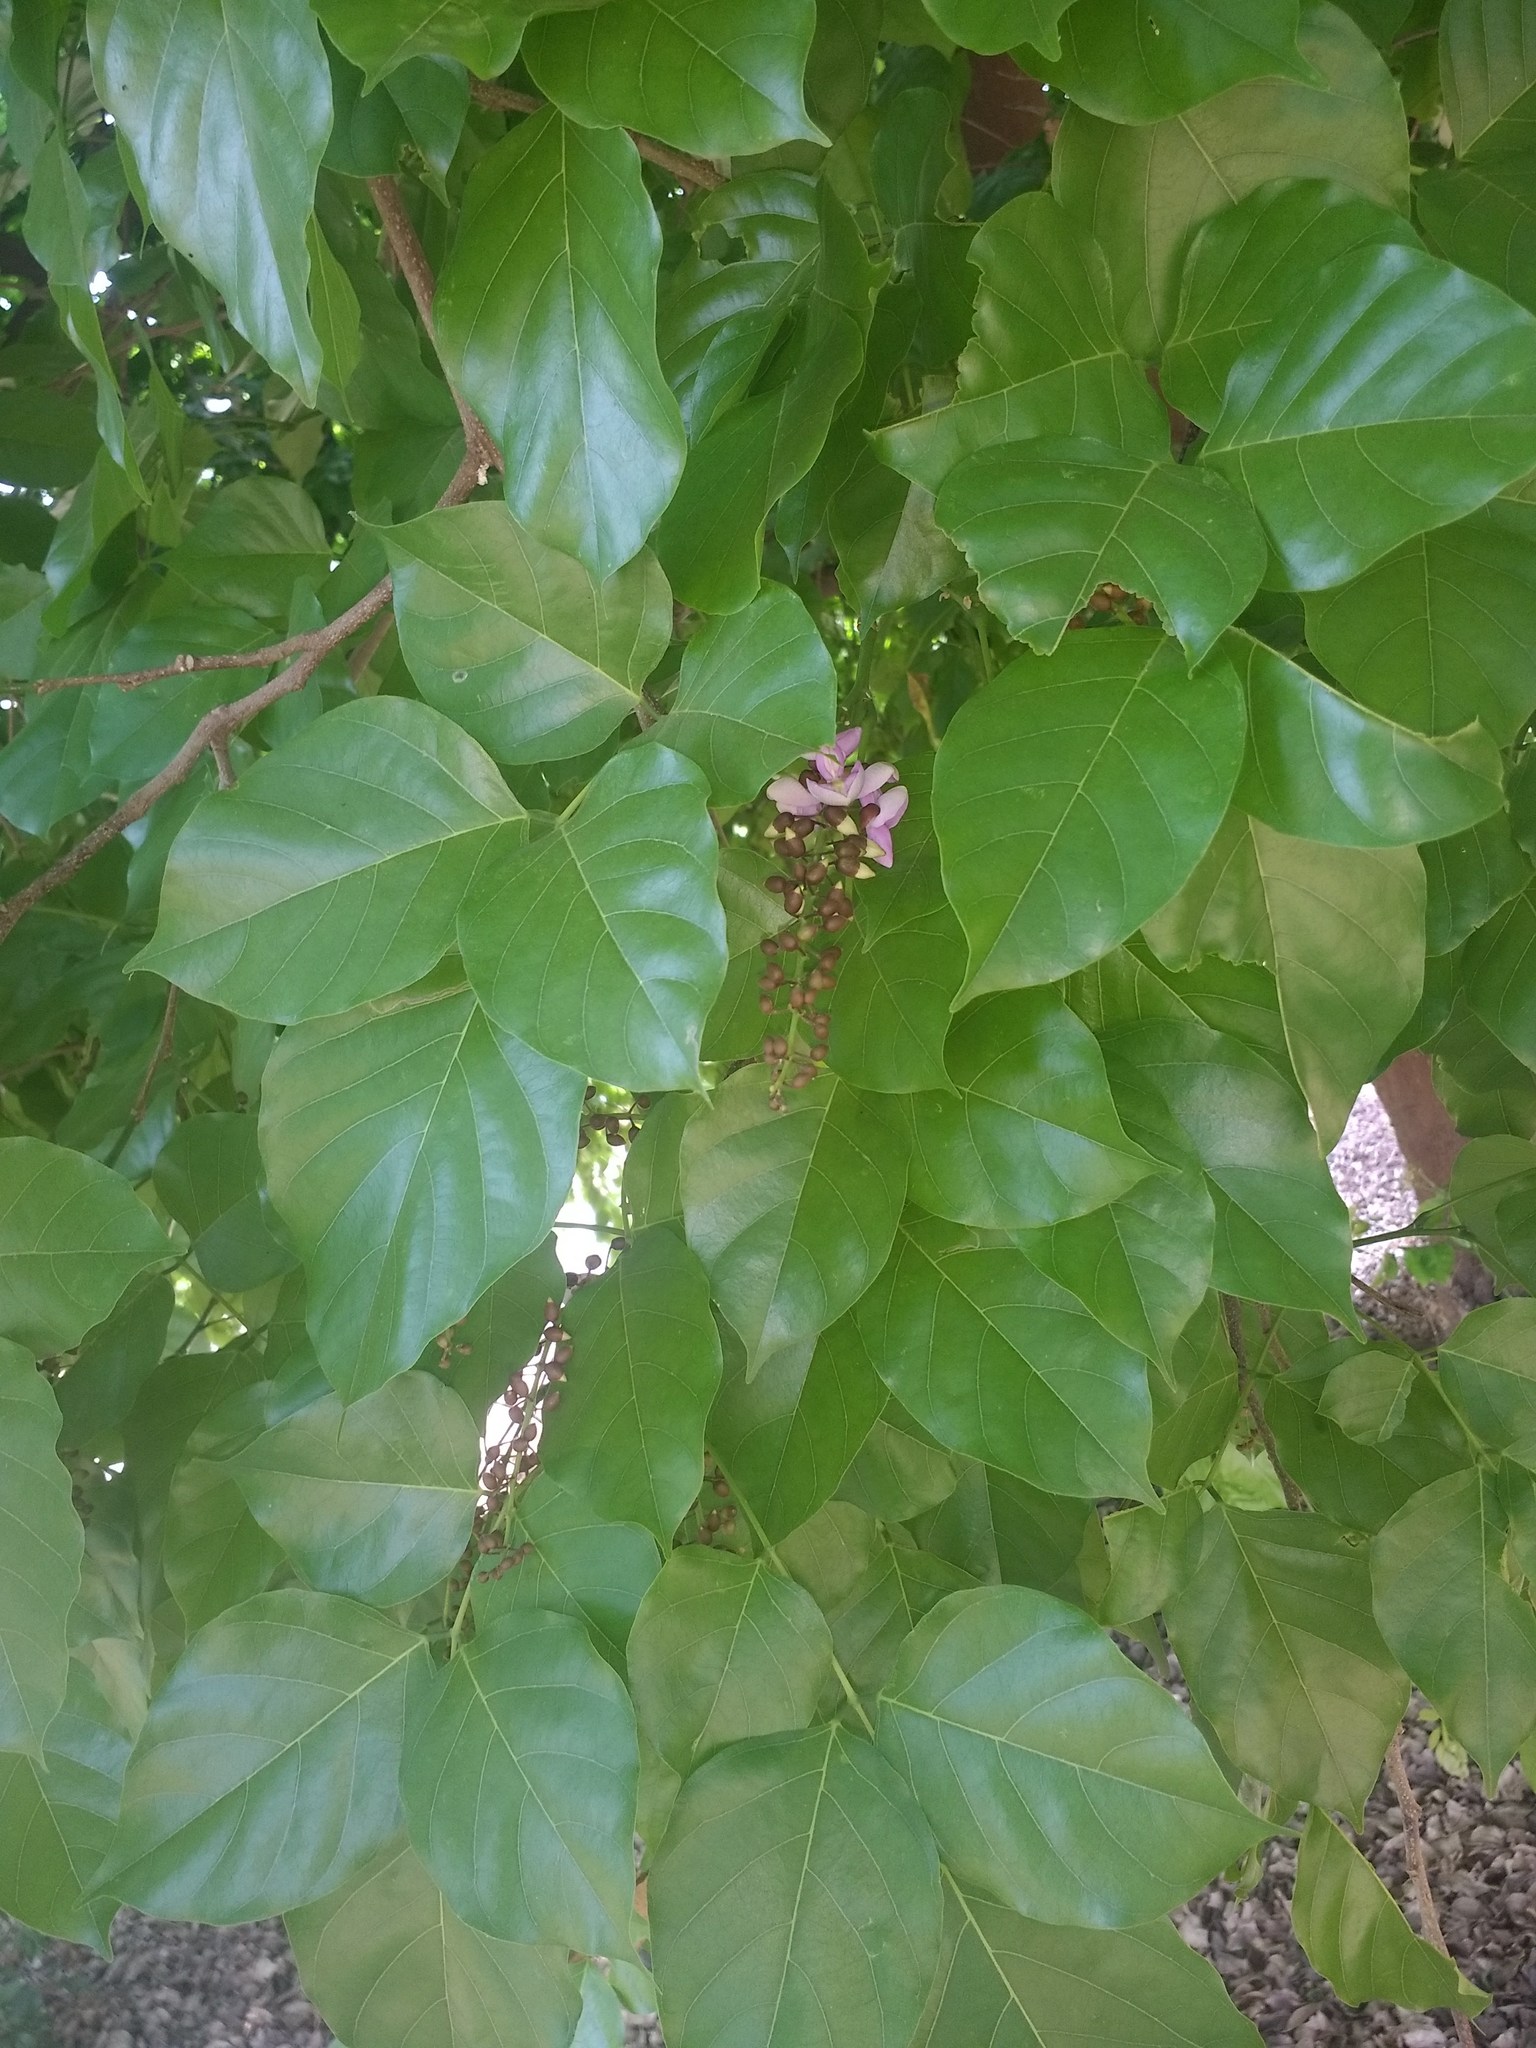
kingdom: Plantae
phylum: Tracheophyta
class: Magnoliopsida
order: Fabales
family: Fabaceae
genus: Pongamia
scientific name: Pongamia pinnata
